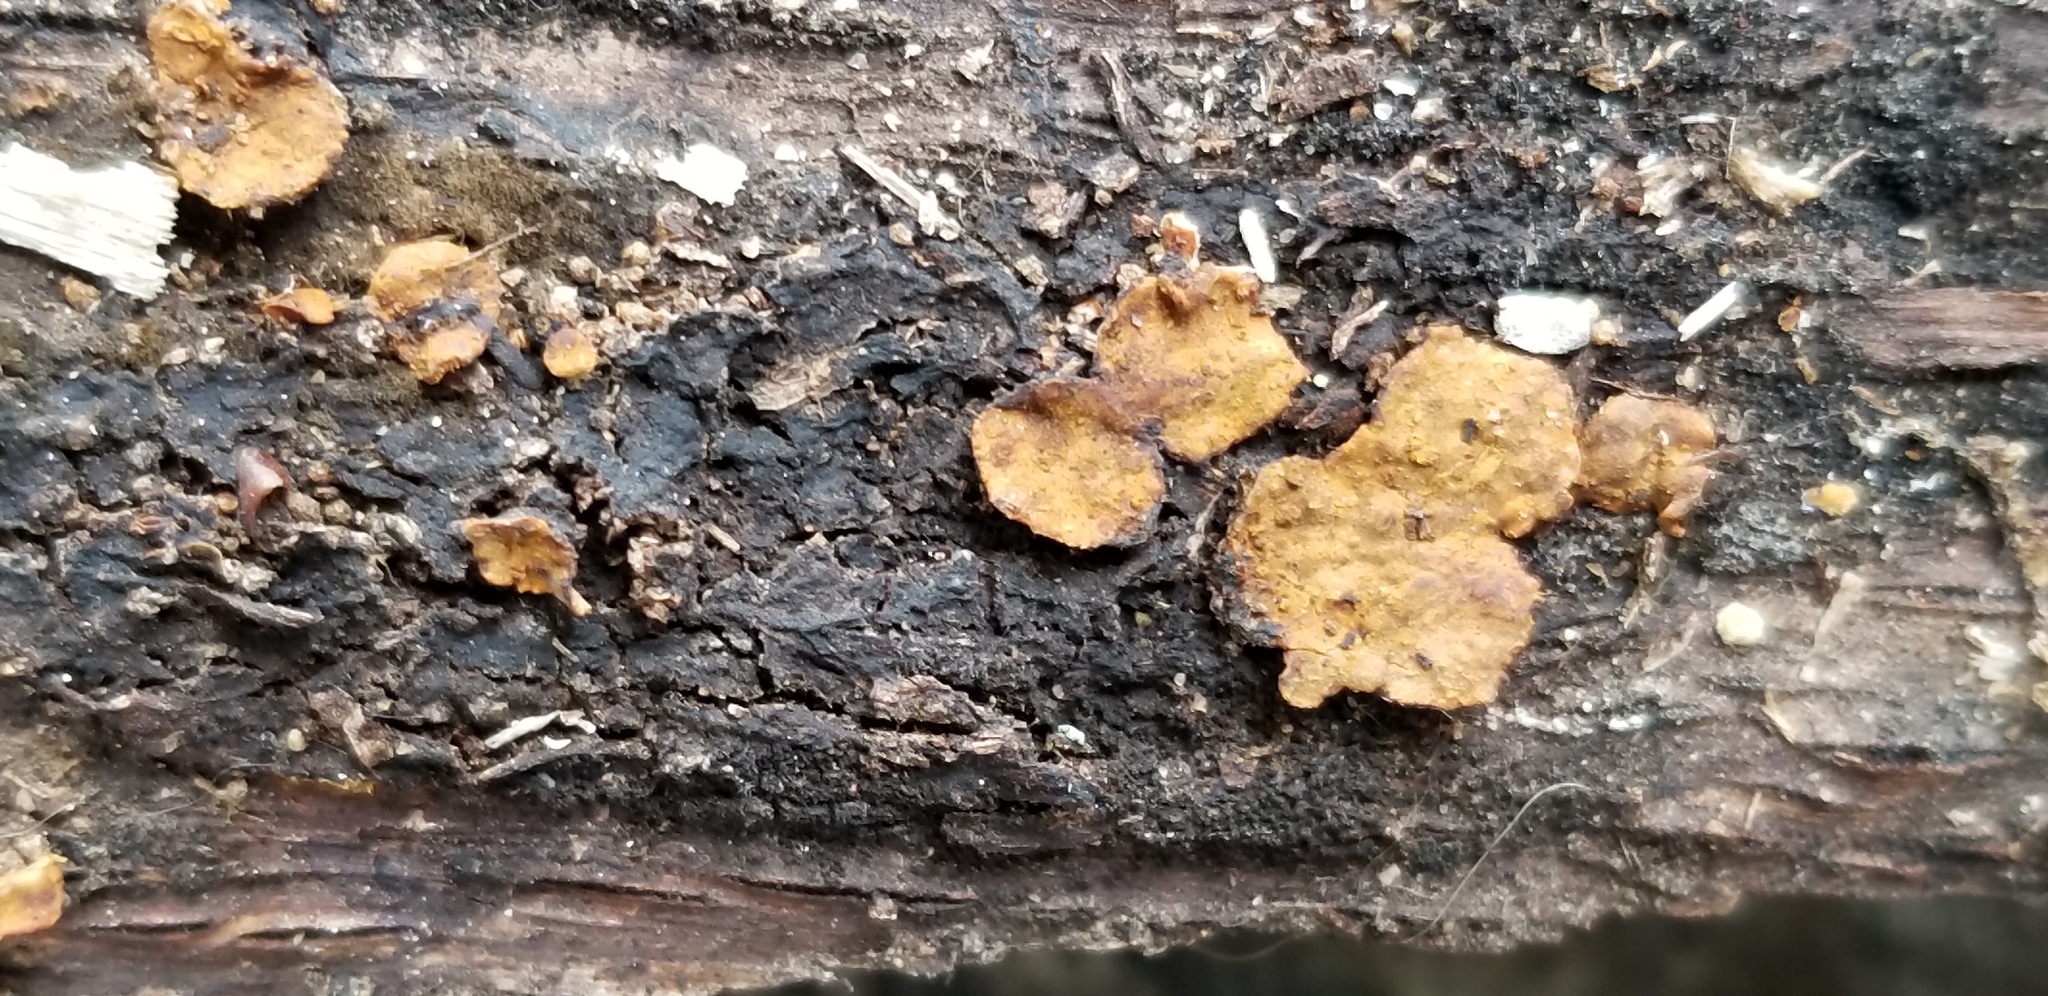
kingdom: Fungi
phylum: Basidiomycota
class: Agaricomycetes
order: Polyporales
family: Polyporaceae
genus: Trametes
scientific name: Trametes hirsuta
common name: Hairy bracket
